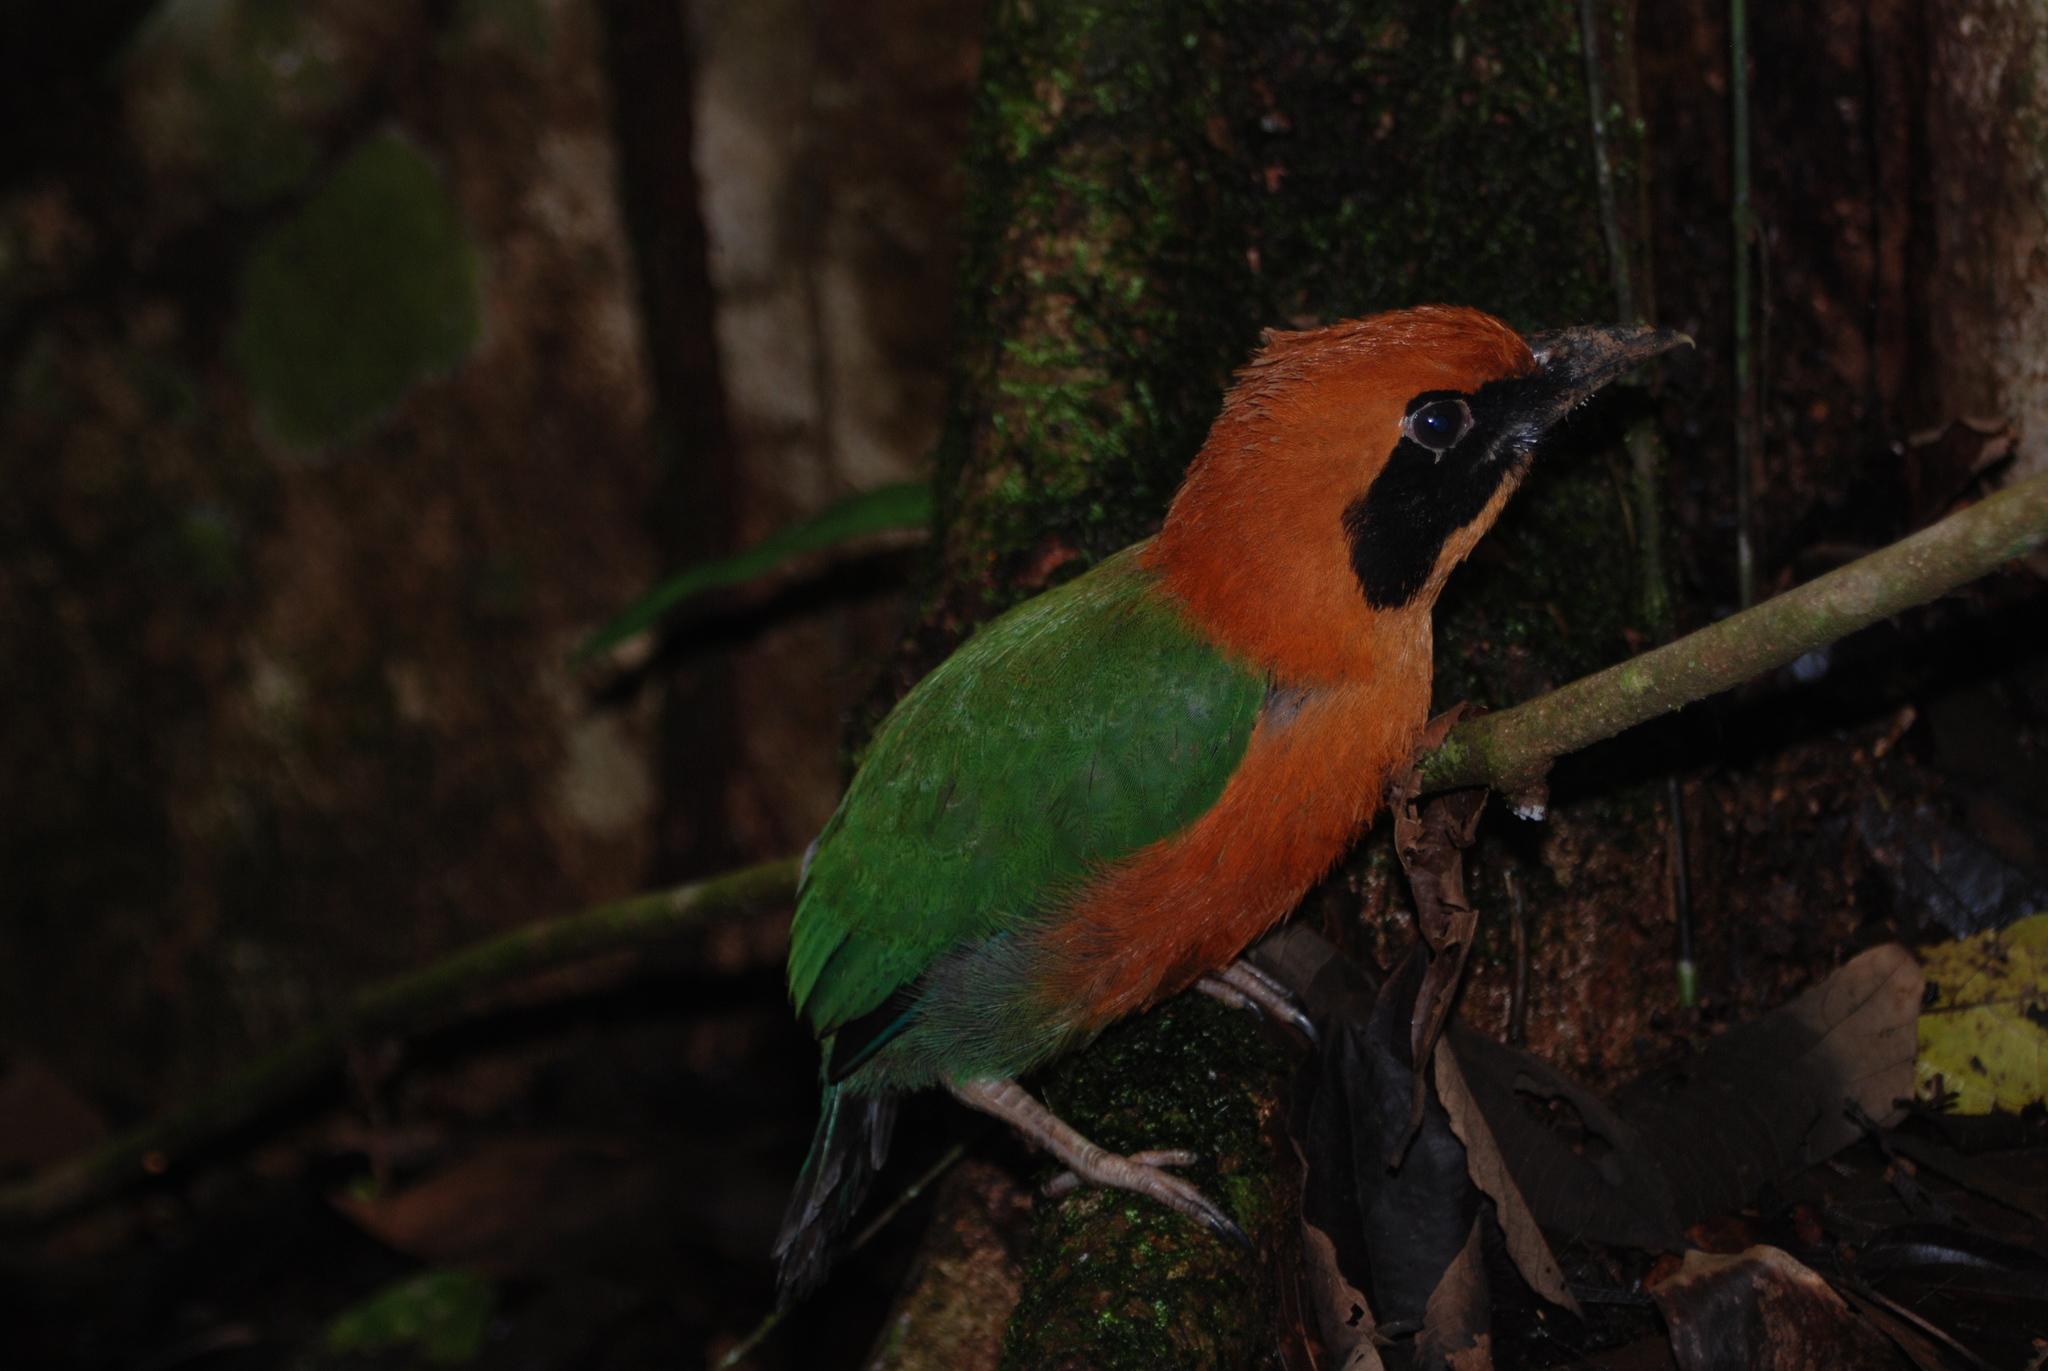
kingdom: Animalia
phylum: Chordata
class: Aves
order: Coraciiformes
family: Momotidae
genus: Baryphthengus
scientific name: Baryphthengus martii
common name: Rufous motmot
